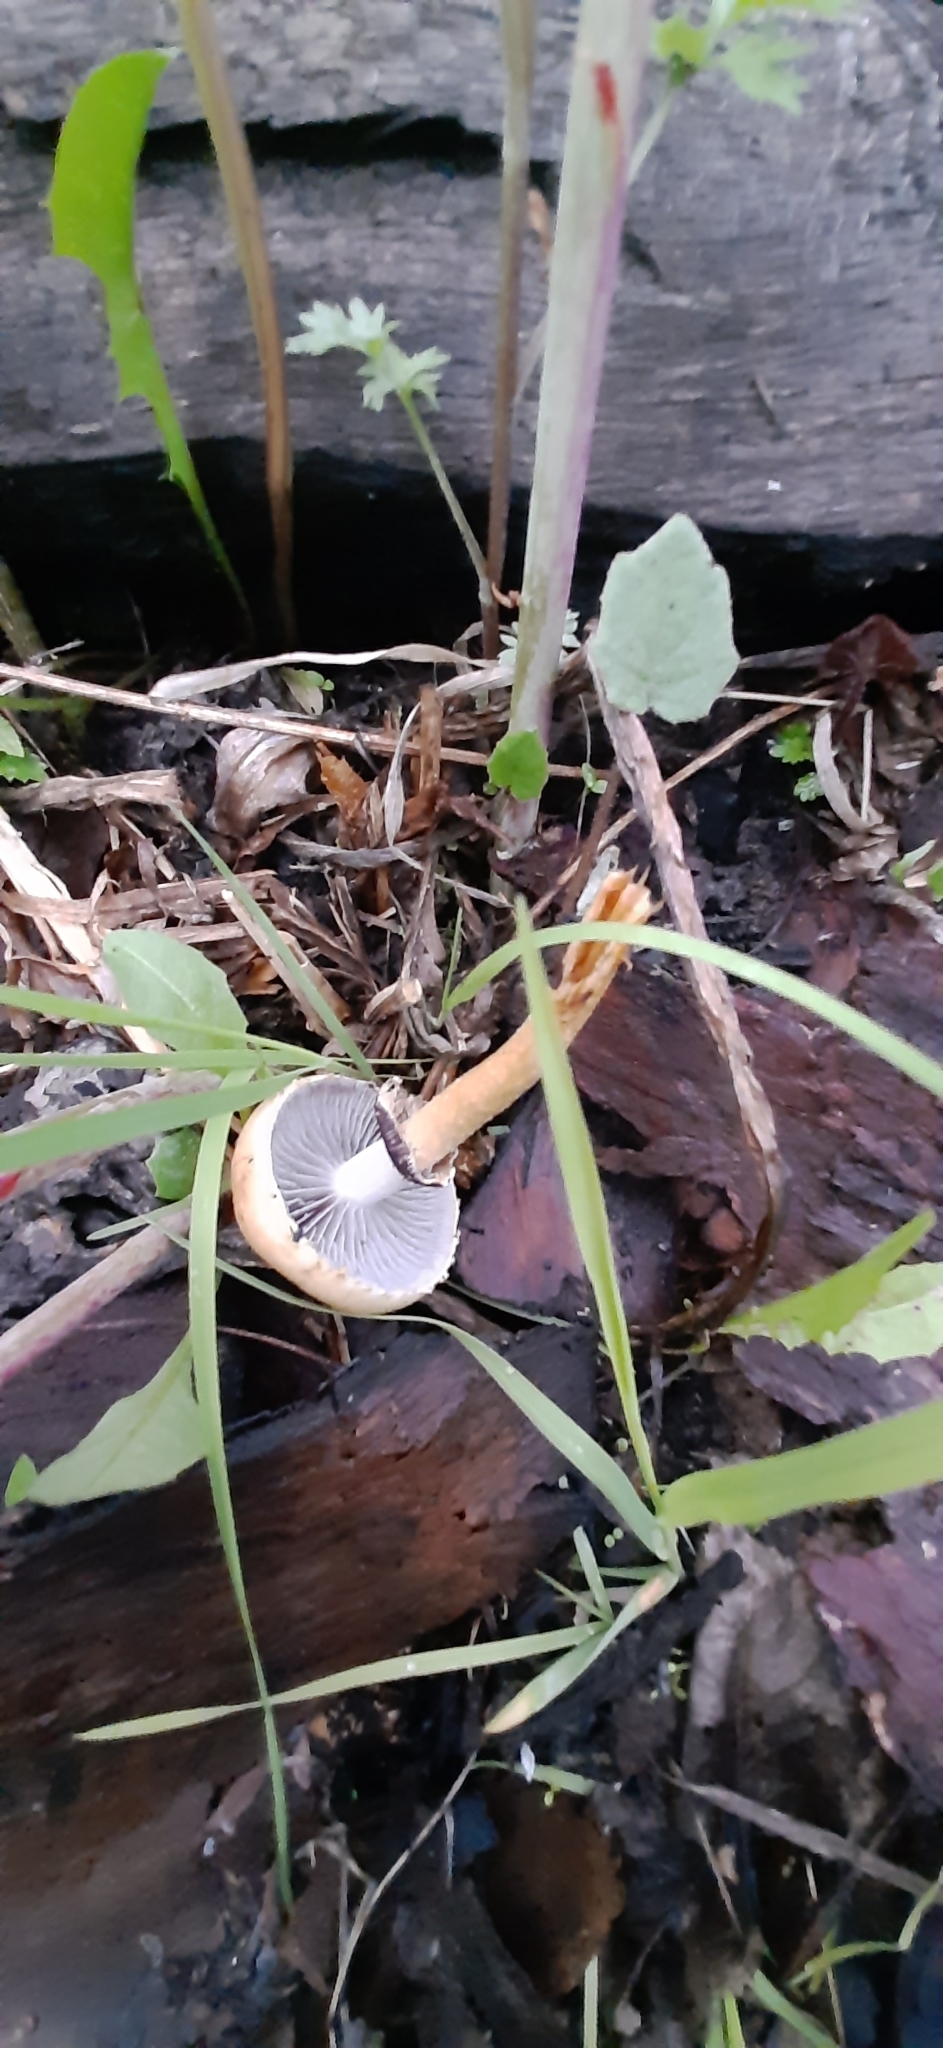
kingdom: Fungi
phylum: Basidiomycota
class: Agaricomycetes
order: Agaricales
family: Strophariaceae
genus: Leratiomyces
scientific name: Leratiomyces magnivelaris
